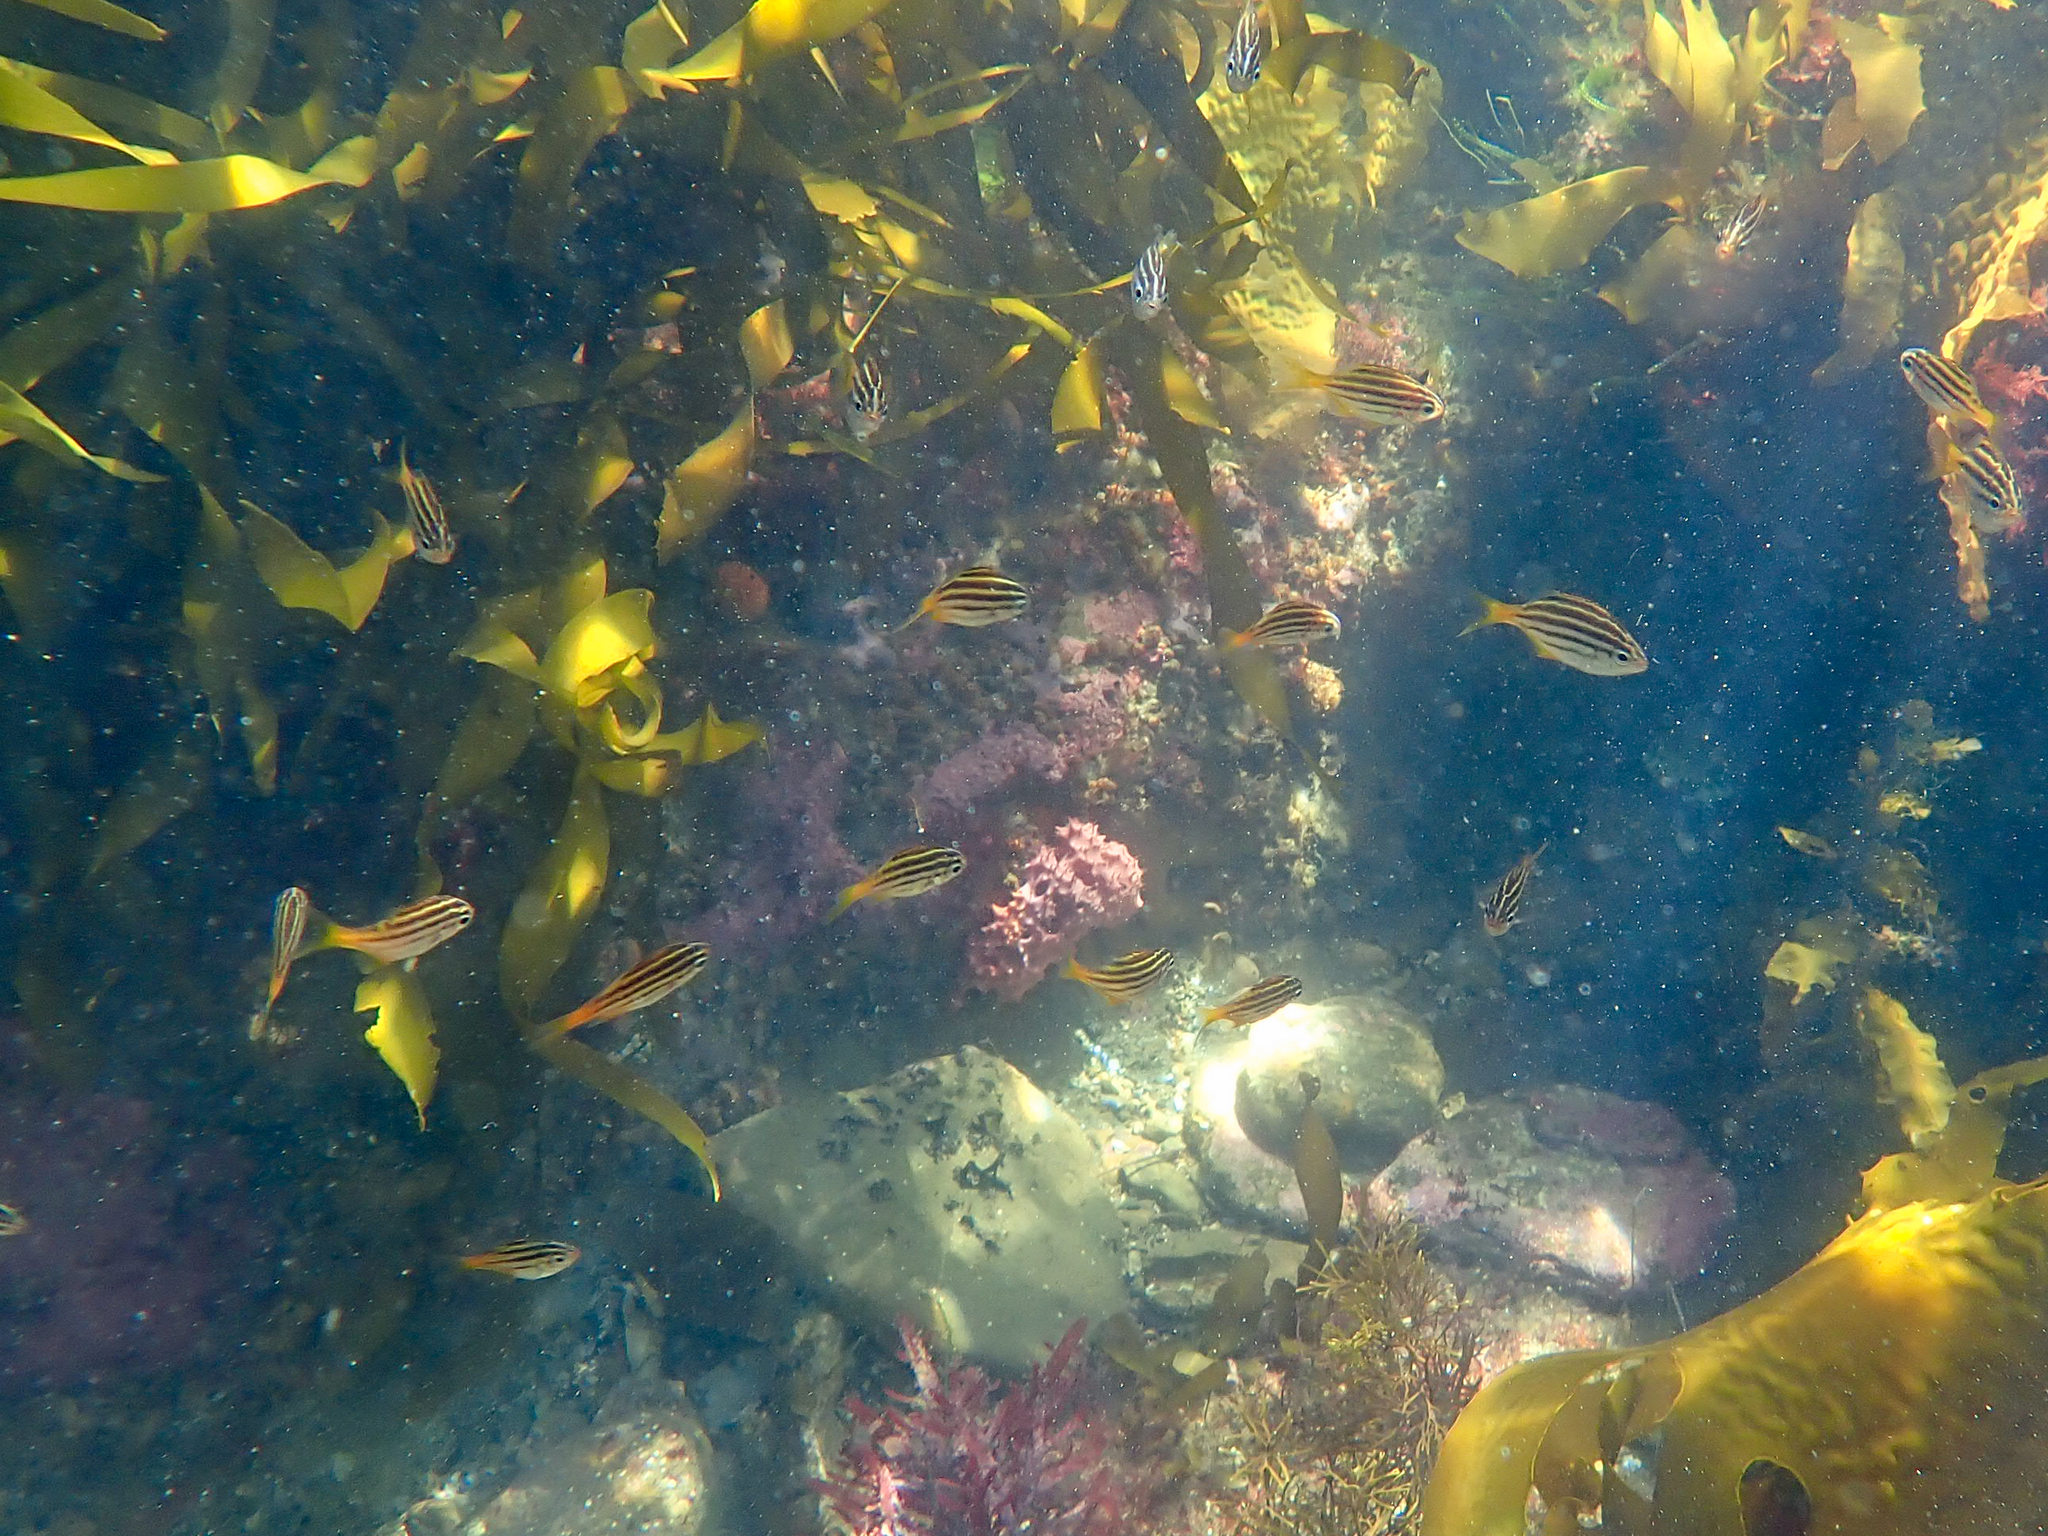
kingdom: Animalia
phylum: Chordata
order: Perciformes
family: Kyphosidae
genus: Atypichthys
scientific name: Atypichthys strigatus
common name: Australian mado
